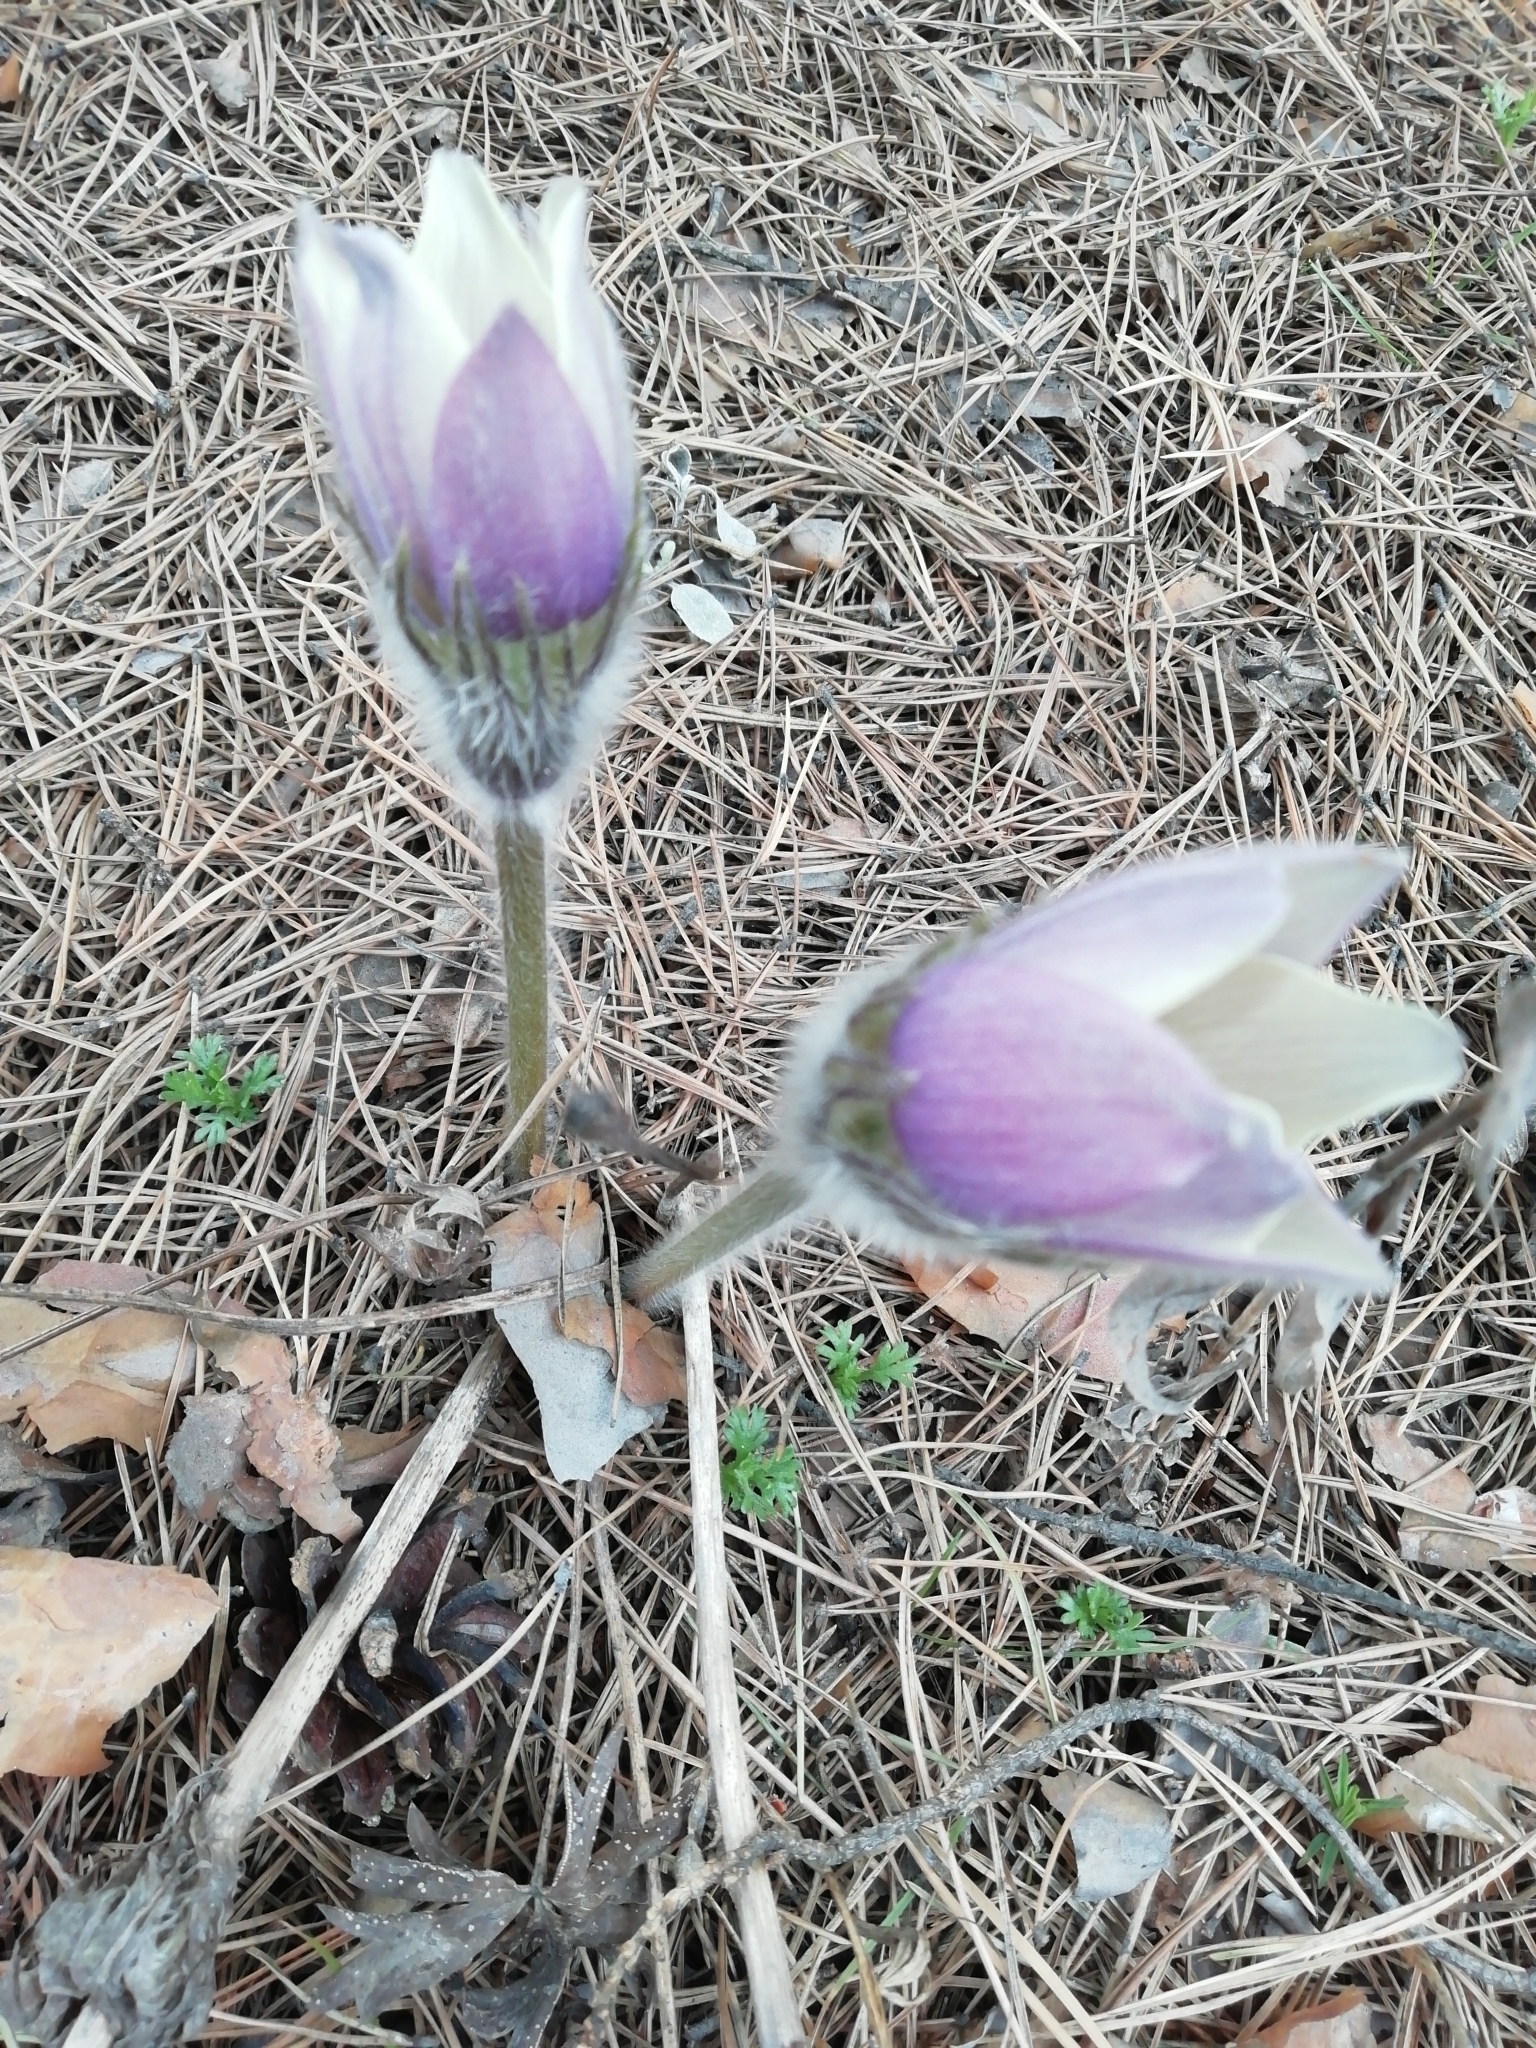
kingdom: Plantae
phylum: Tracheophyta
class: Magnoliopsida
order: Ranunculales
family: Ranunculaceae
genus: Pulsatilla
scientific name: Pulsatilla patens
